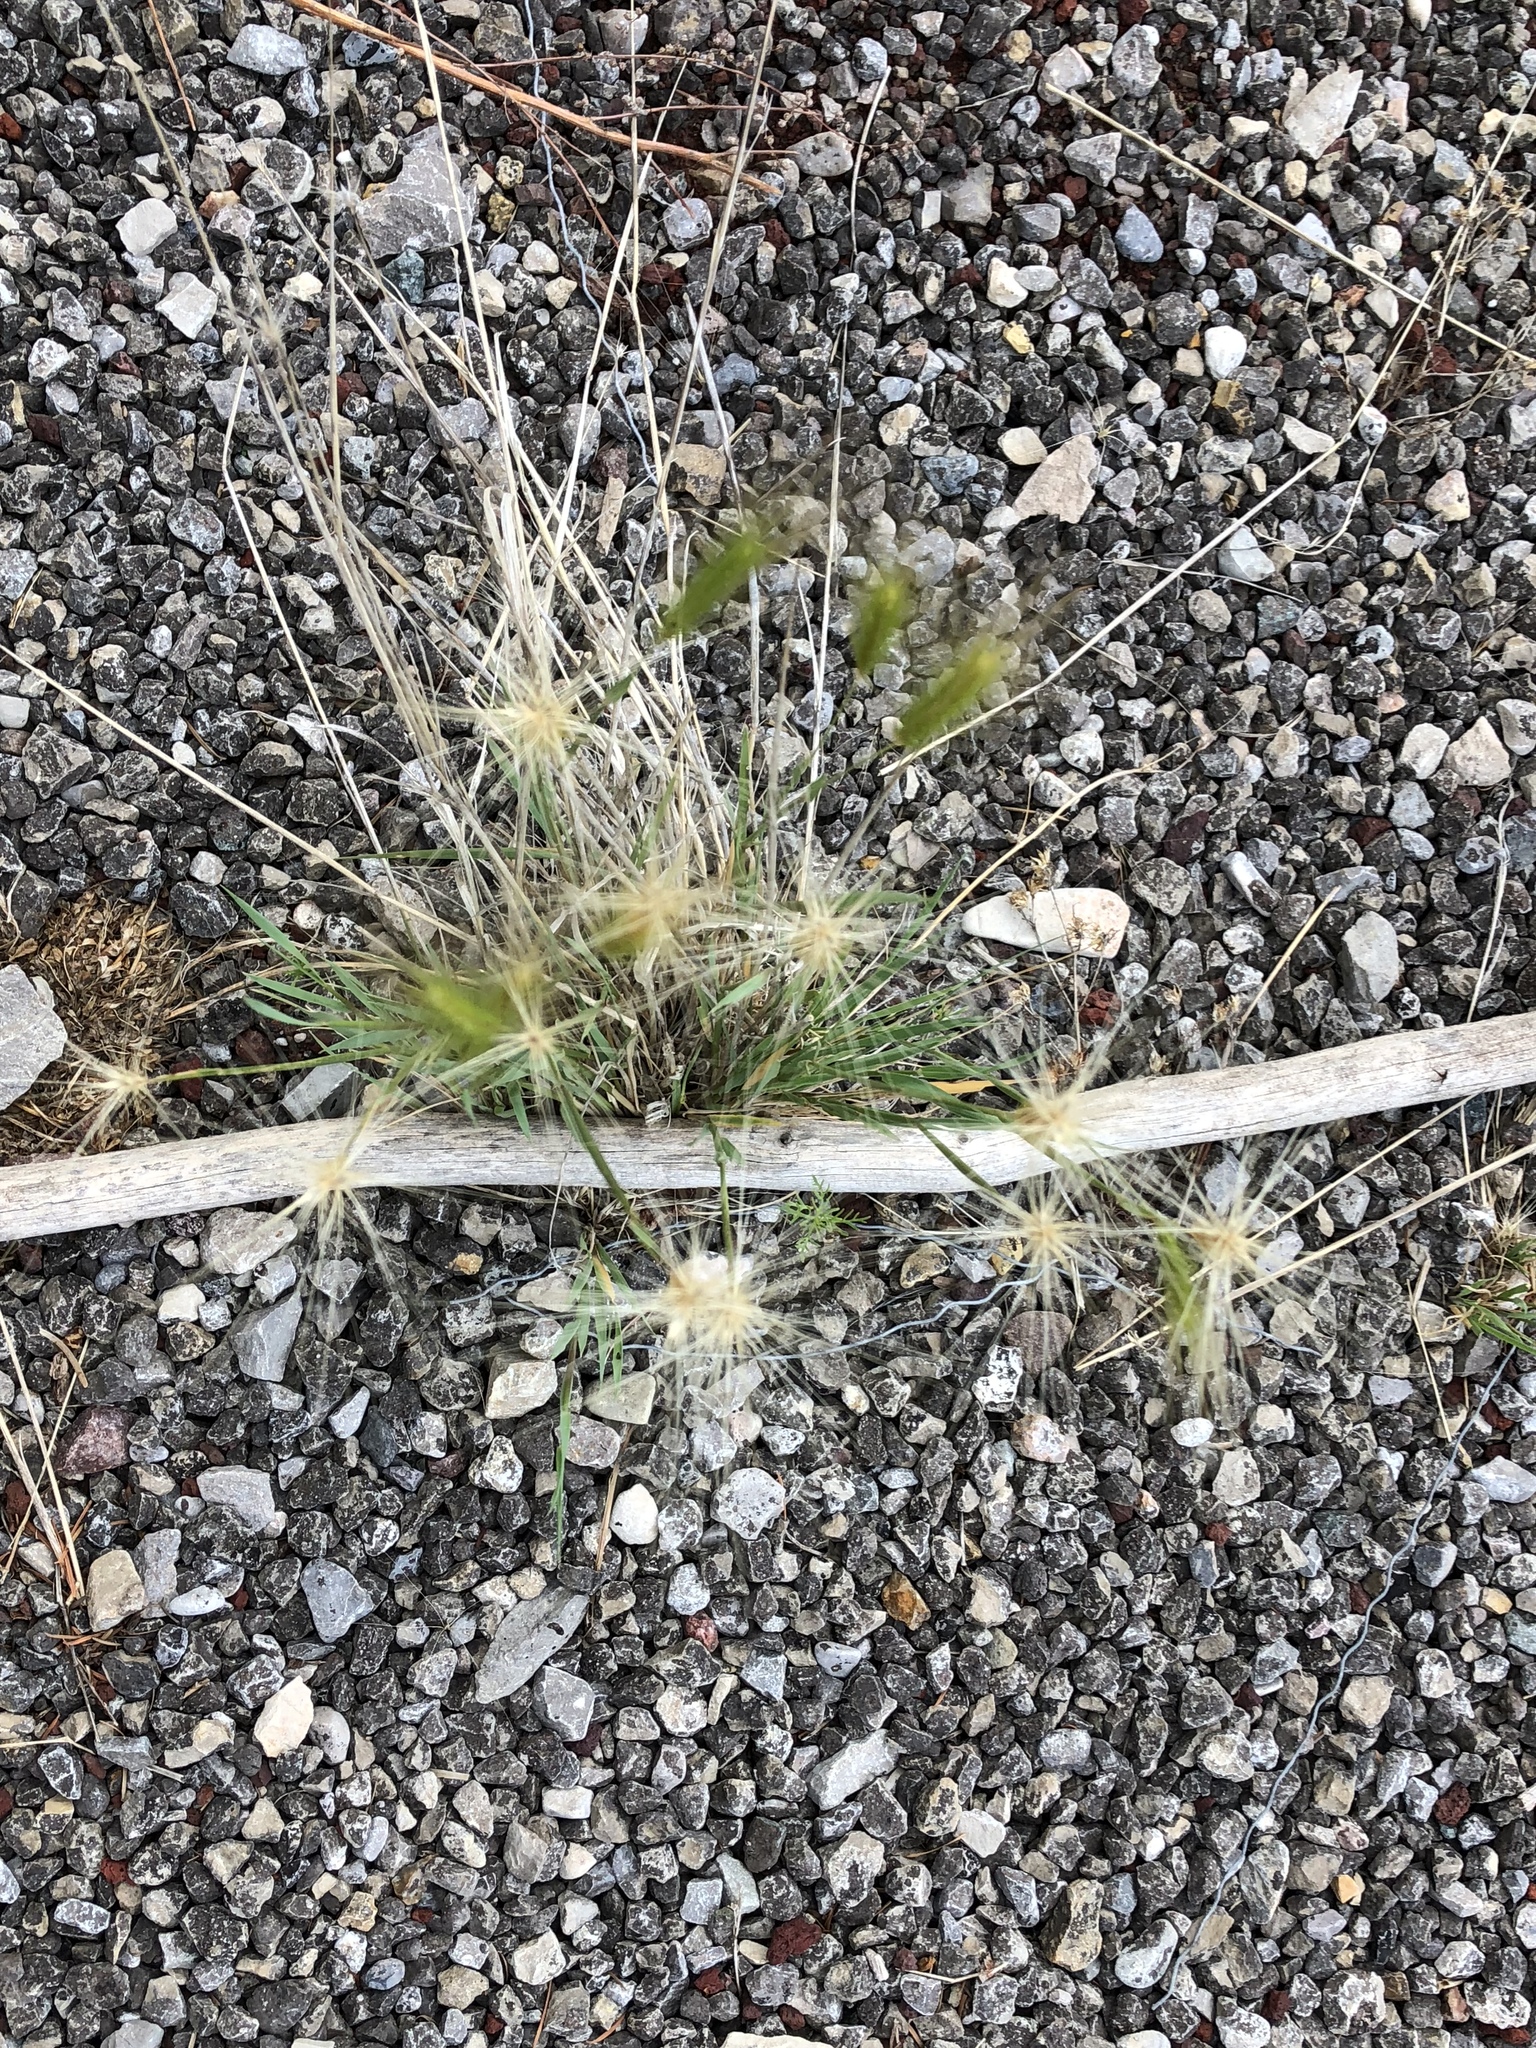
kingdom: Plantae
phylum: Tracheophyta
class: Liliopsida
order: Poales
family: Poaceae
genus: Hordeum
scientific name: Hordeum jubatum
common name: Foxtail barley
